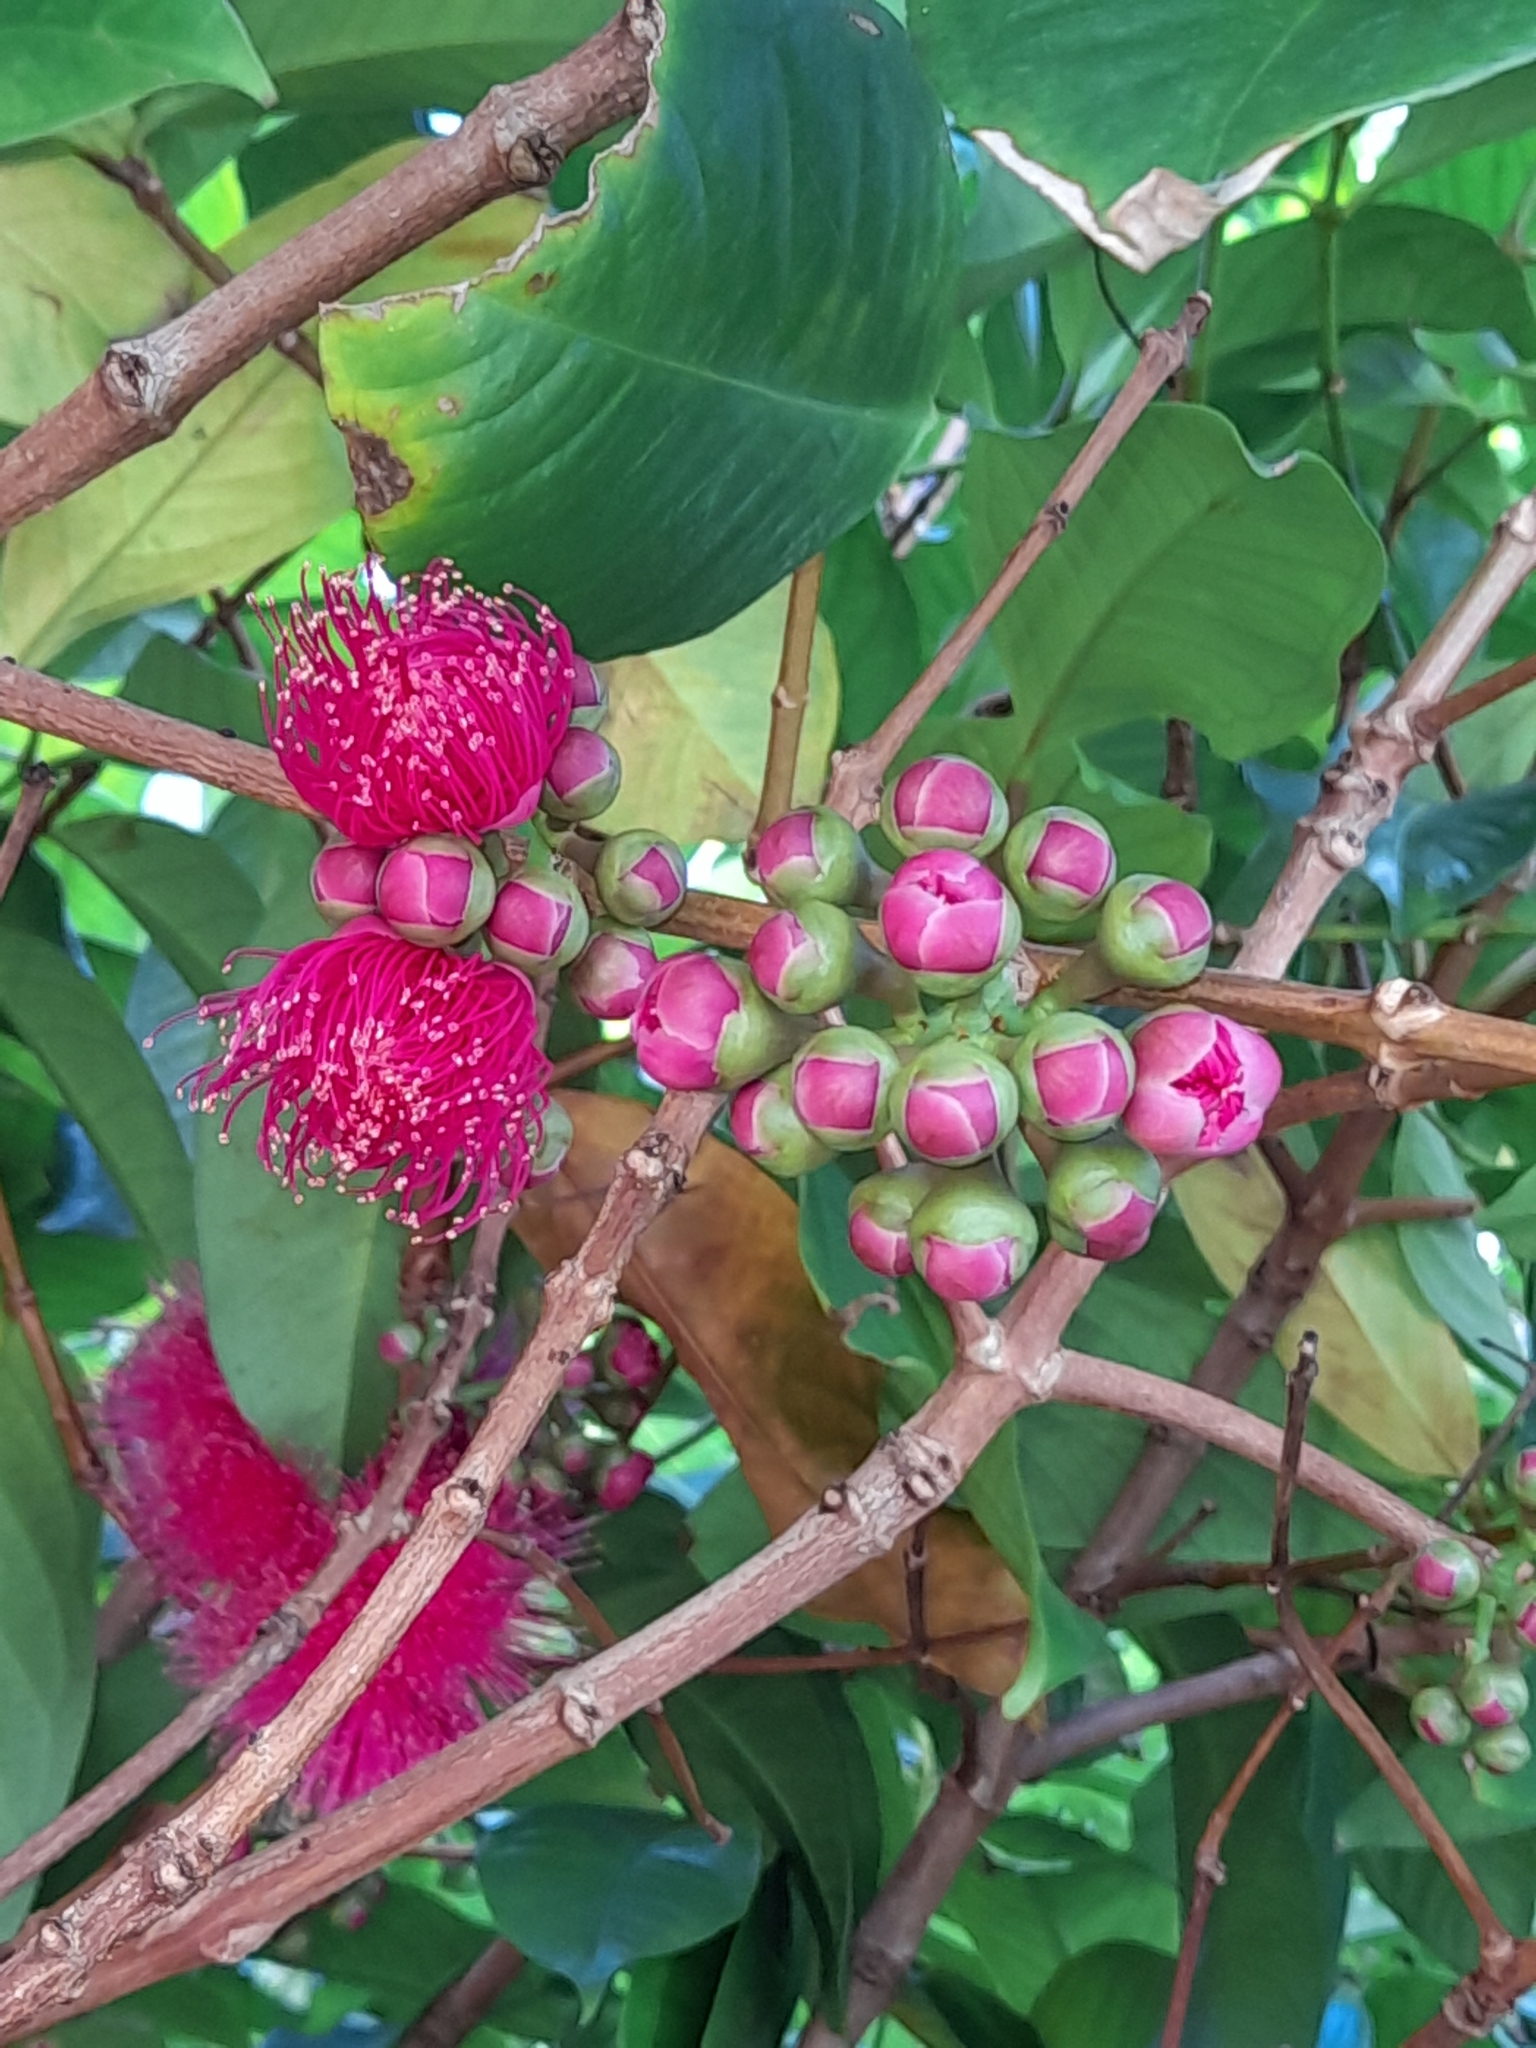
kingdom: Plantae
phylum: Tracheophyta
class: Magnoliopsida
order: Myrtales
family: Myrtaceae
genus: Syzygium
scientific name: Syzygium malaccense
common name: Malaysian apple
